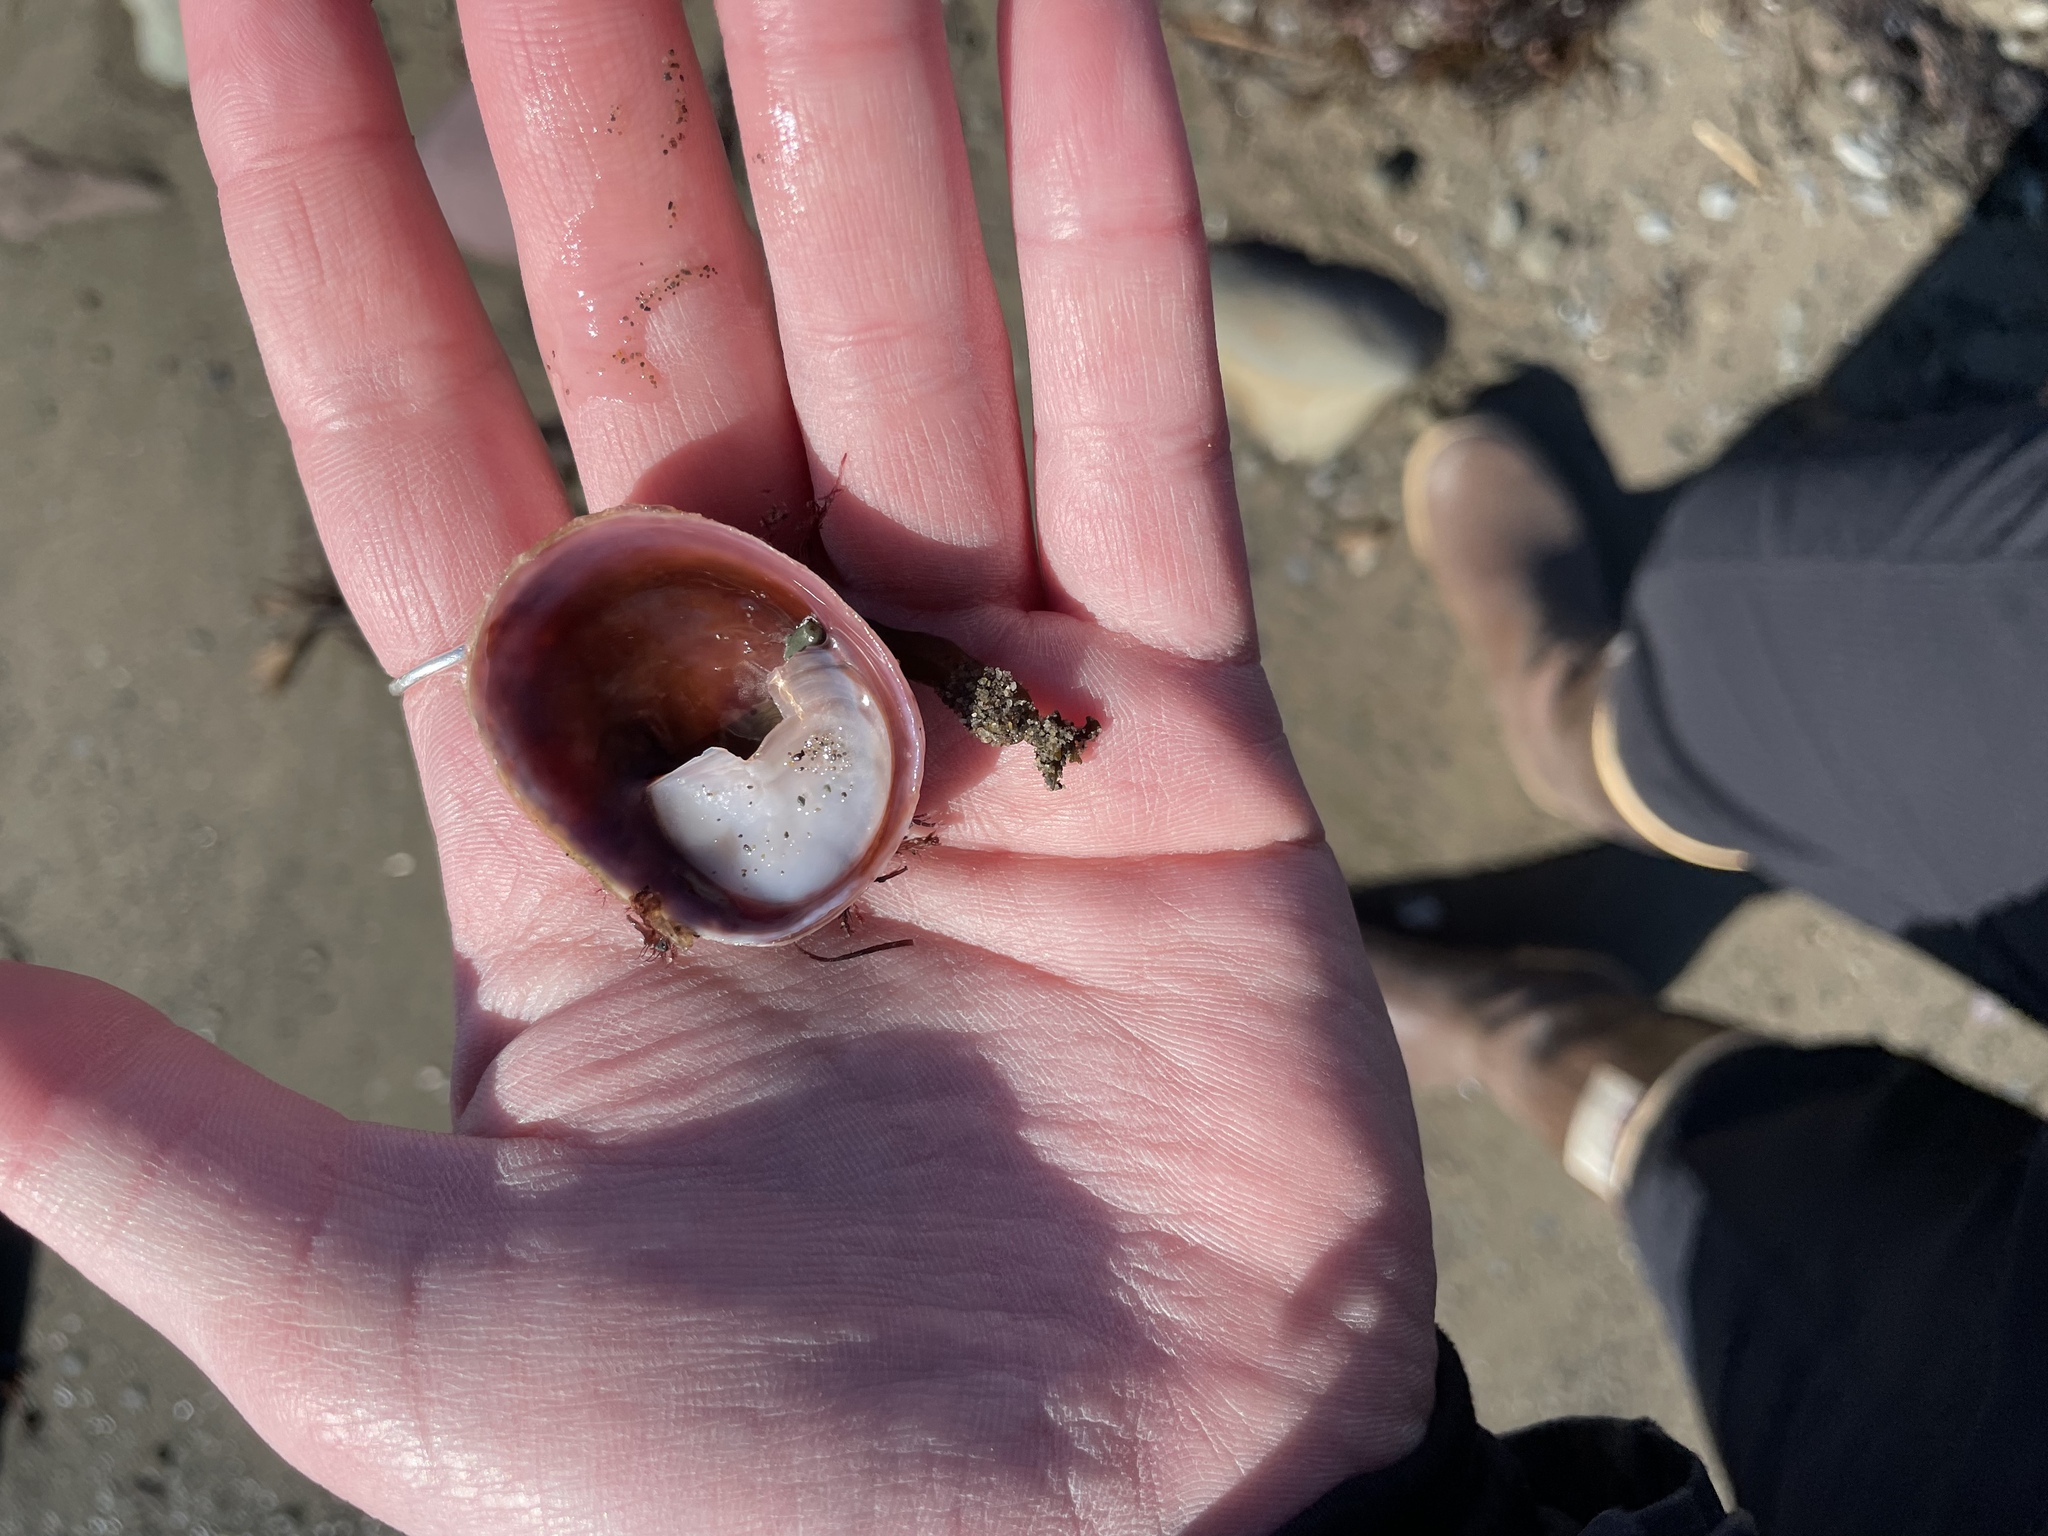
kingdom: Animalia
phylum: Mollusca
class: Gastropoda
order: Littorinimorpha
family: Calyptraeidae
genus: Crepidula
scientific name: Crepidula fornicata
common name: Slipper limpet
